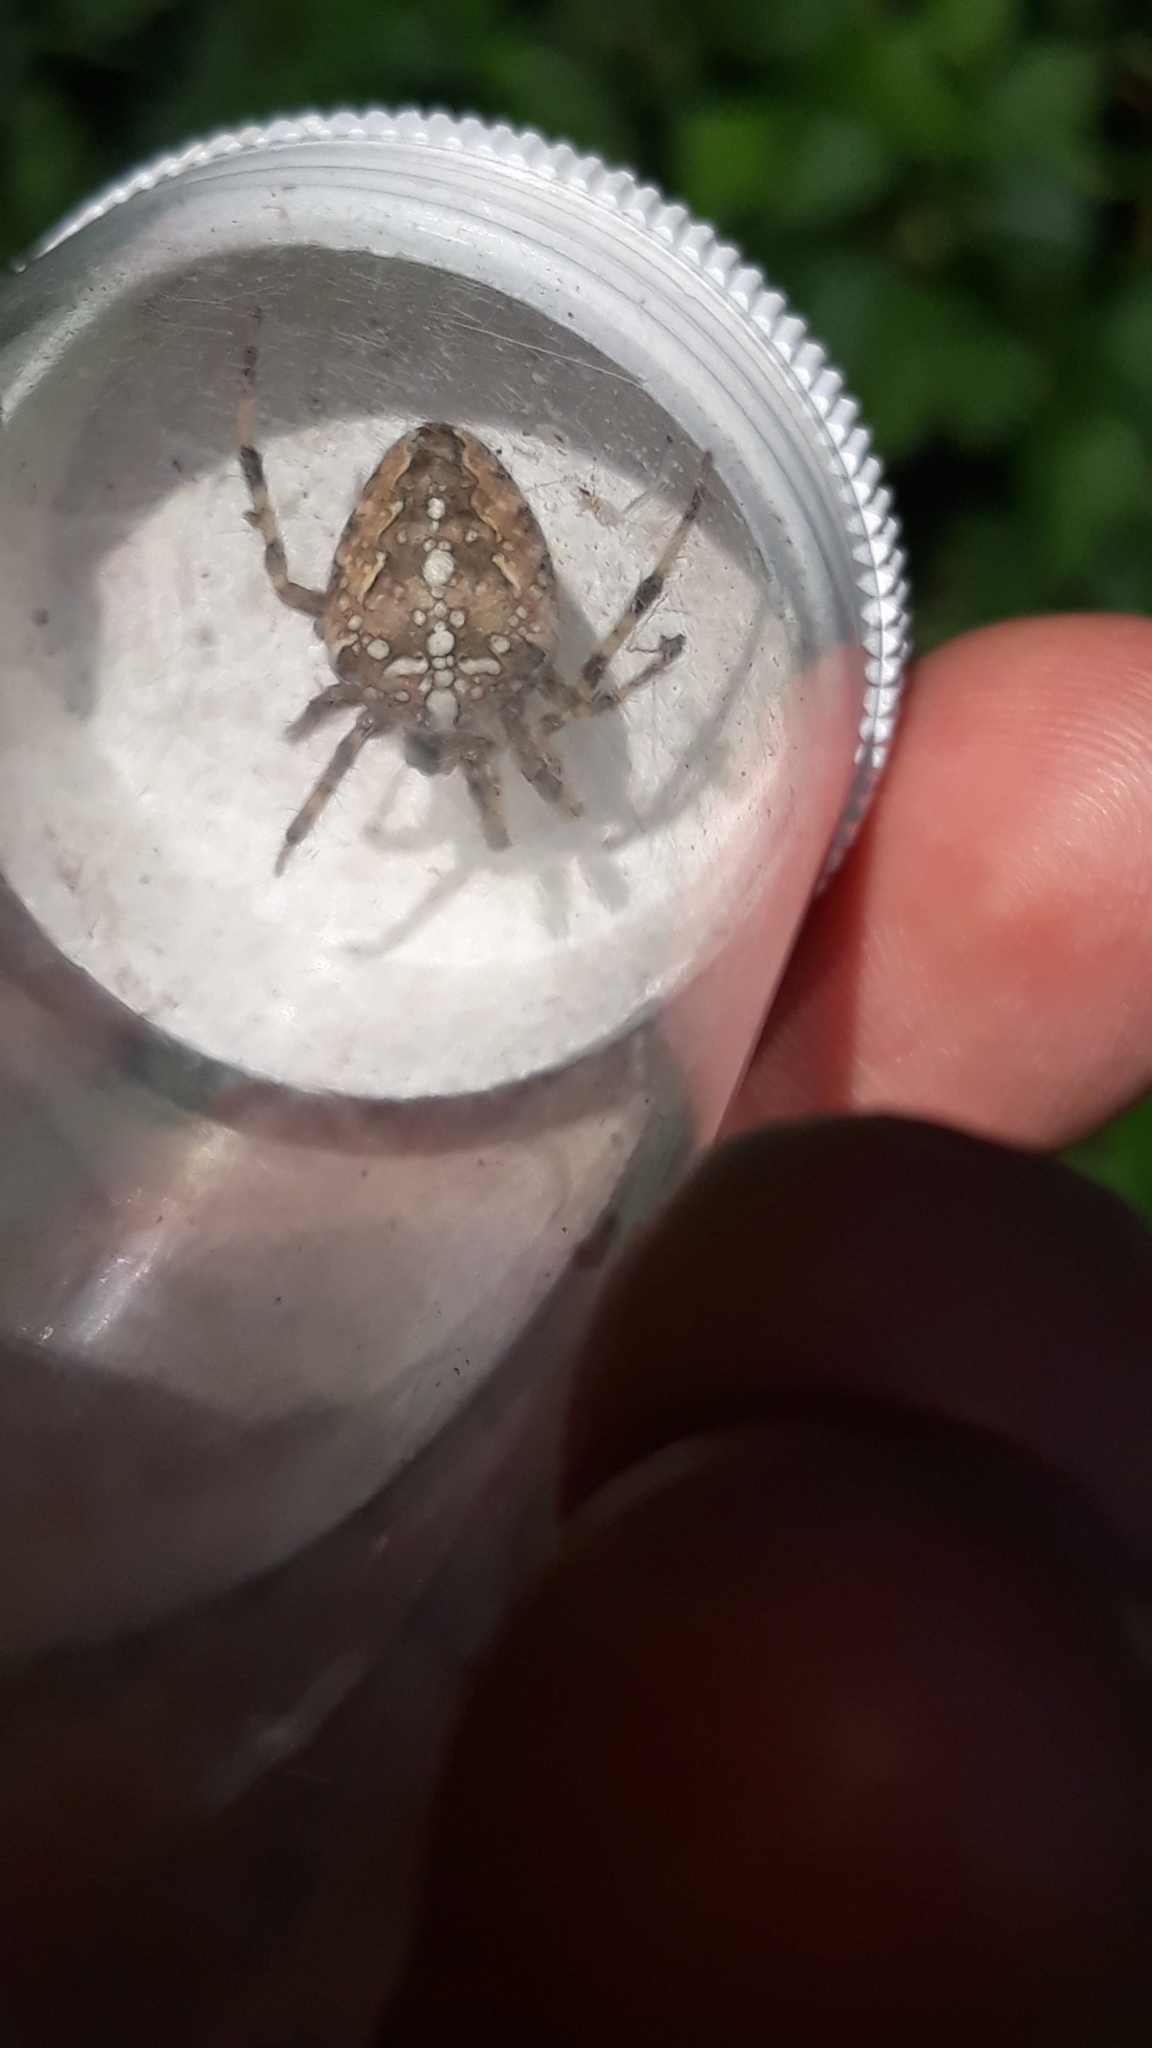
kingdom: Animalia
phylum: Arthropoda
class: Arachnida
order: Araneae
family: Araneidae
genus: Araneus
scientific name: Araneus diadematus
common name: Cross orbweaver
